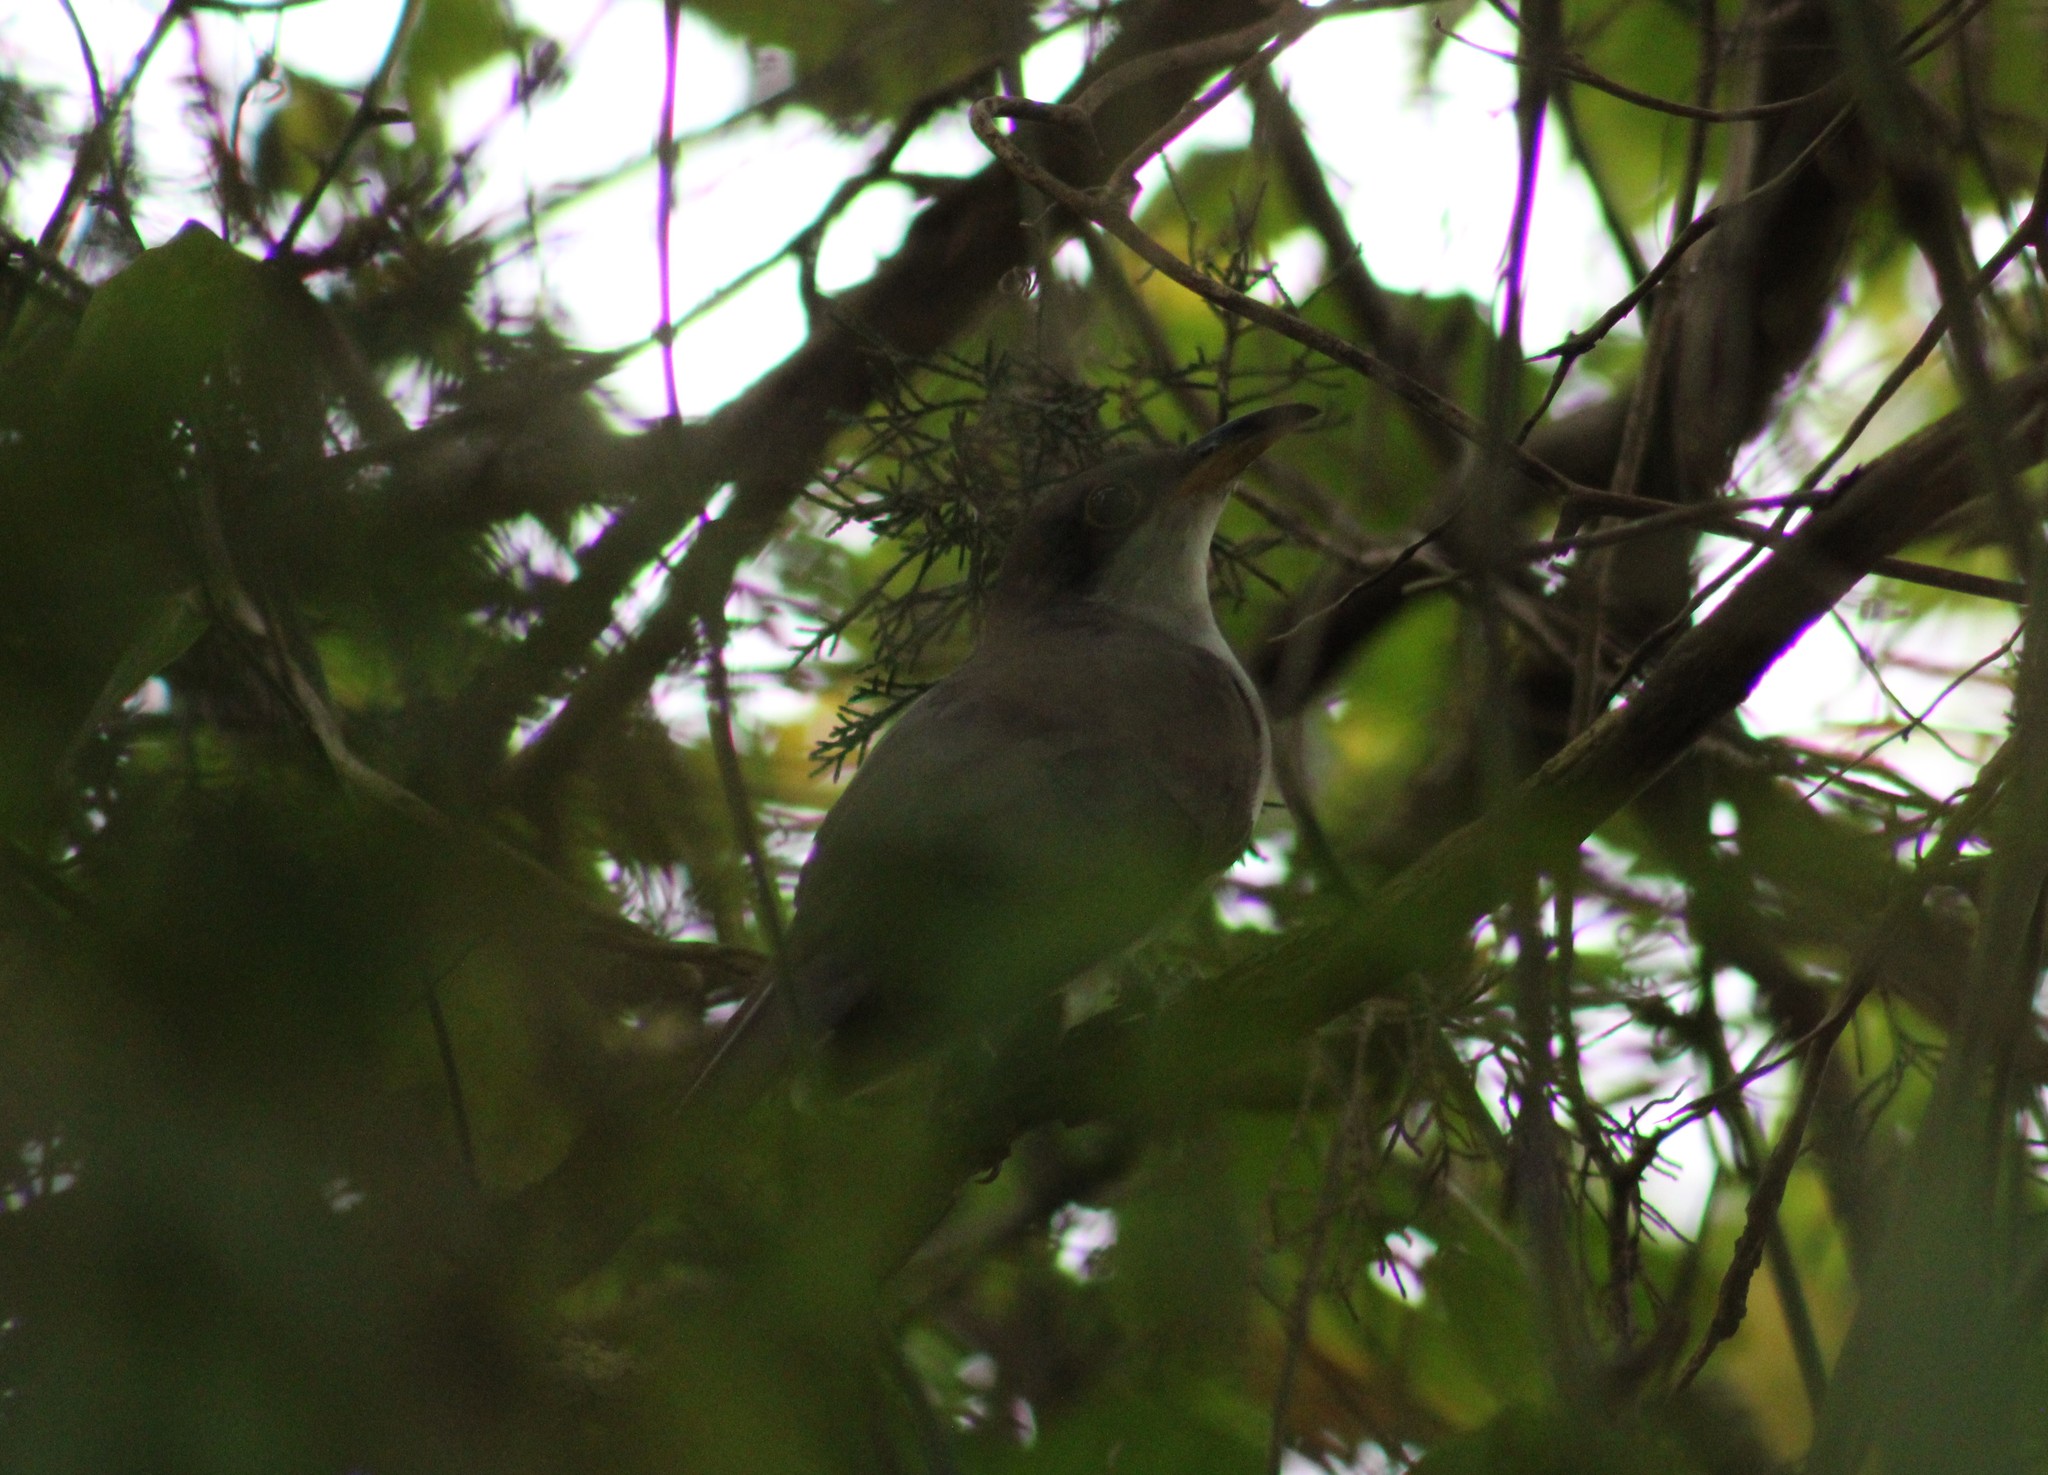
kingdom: Animalia
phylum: Chordata
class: Aves
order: Cuculiformes
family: Cuculidae
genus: Coccyzus
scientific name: Coccyzus americanus
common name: Yellow-billed cuckoo
